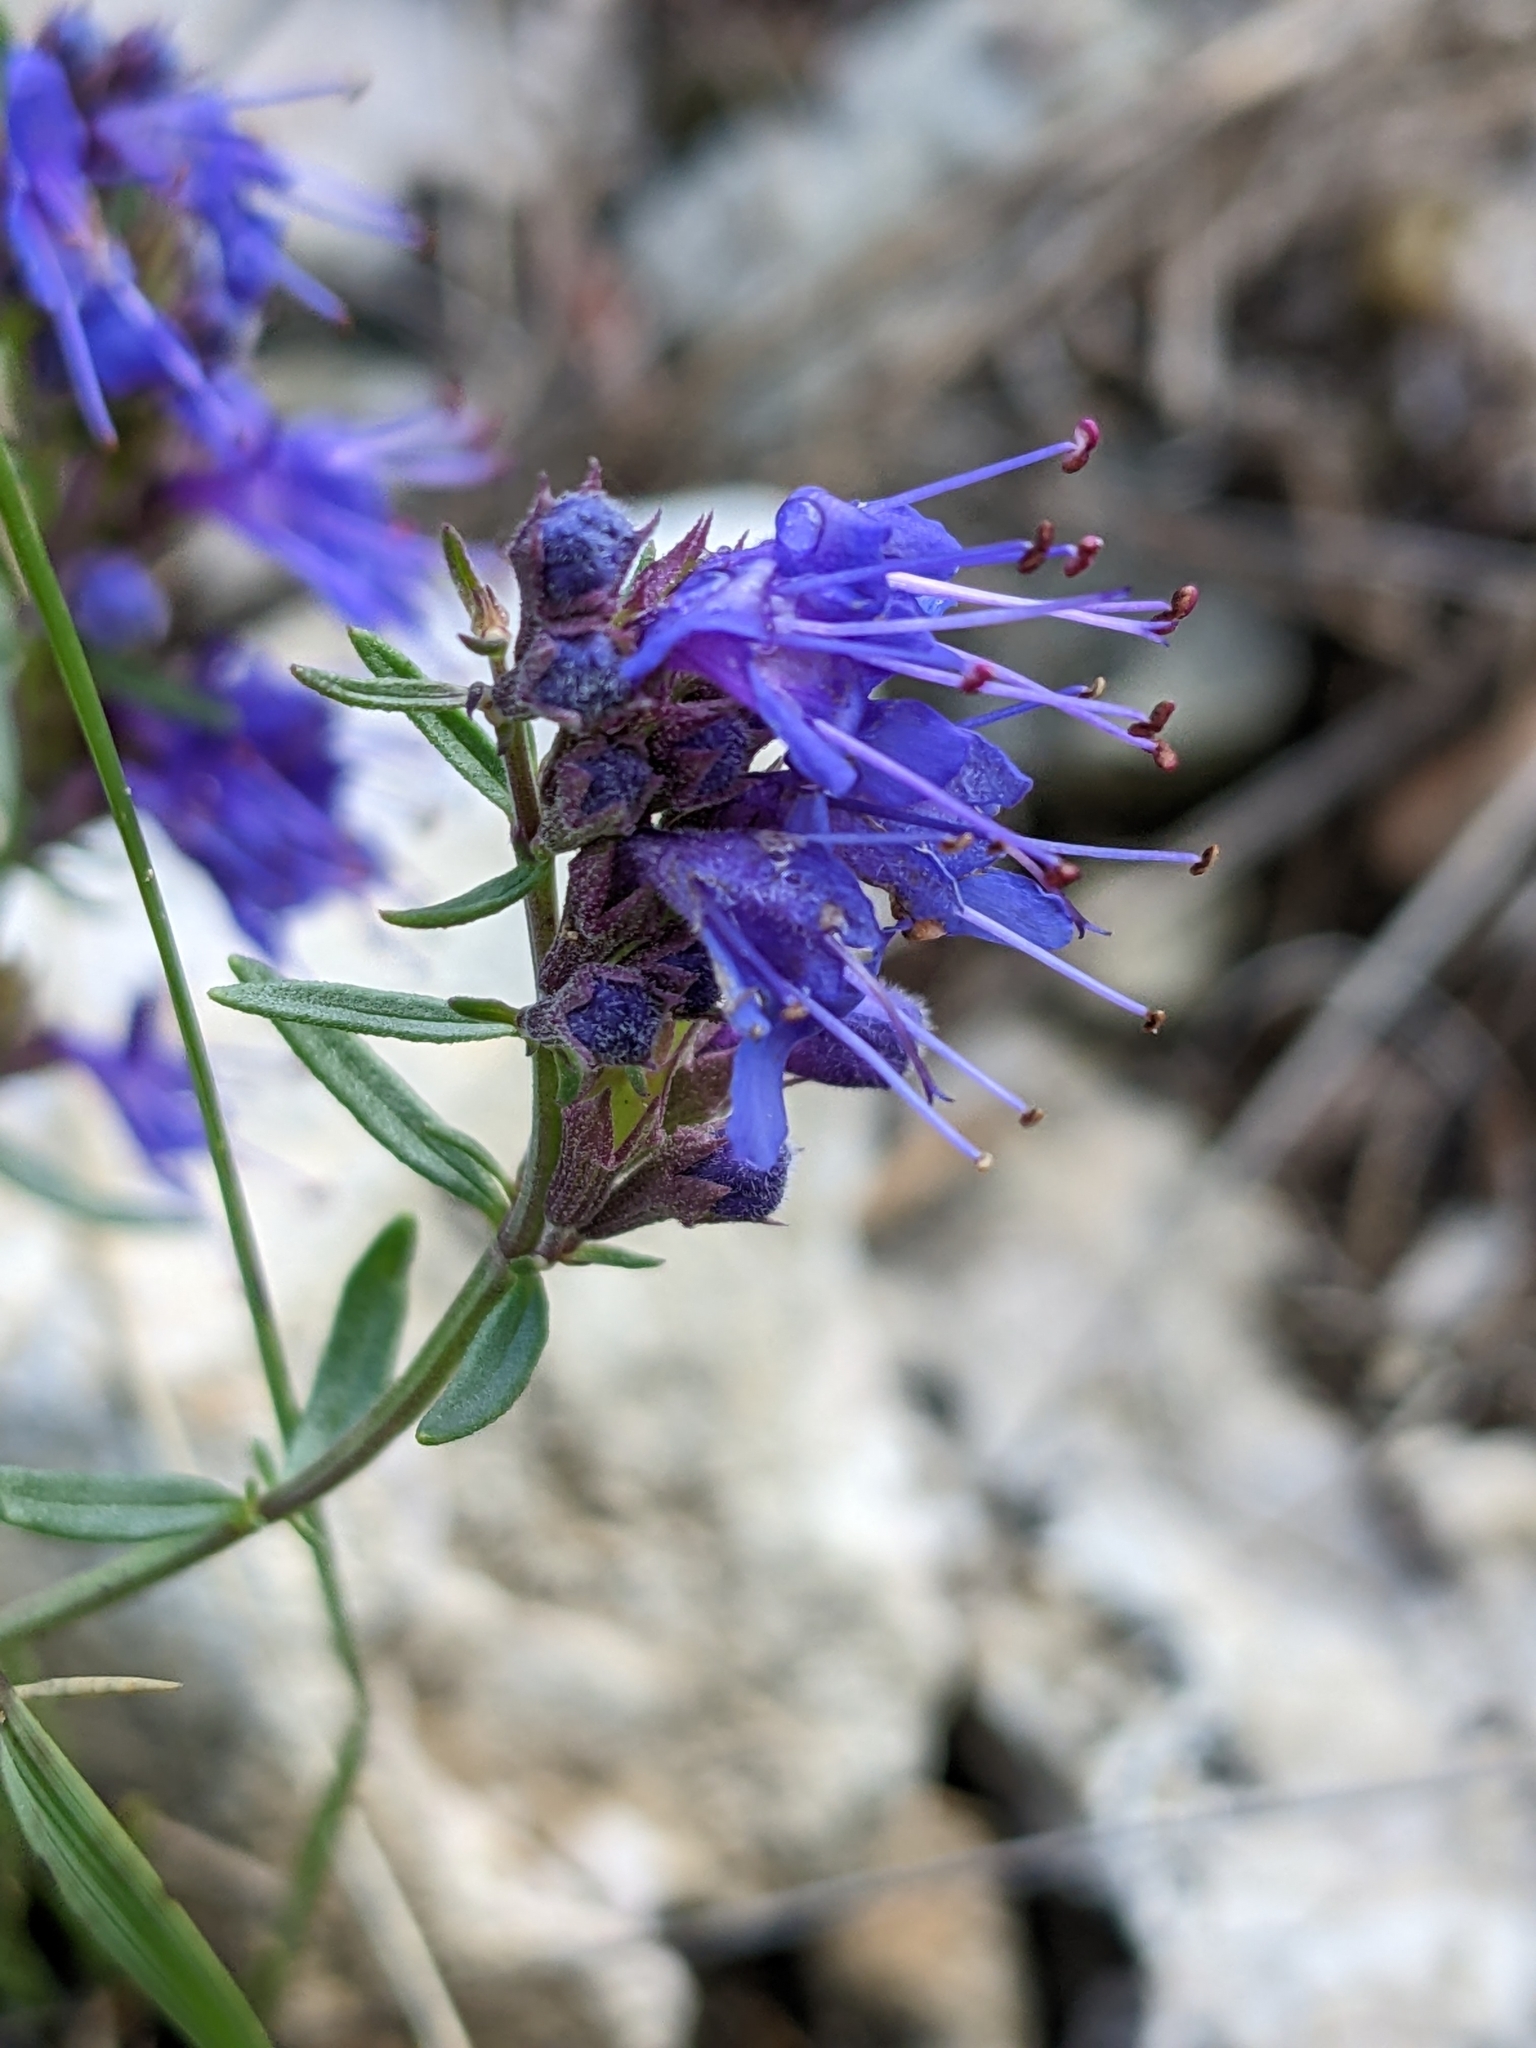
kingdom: Plantae
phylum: Tracheophyta
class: Magnoliopsida
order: Lamiales
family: Lamiaceae
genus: Hyssopus
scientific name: Hyssopus officinalis
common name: Hyssop
